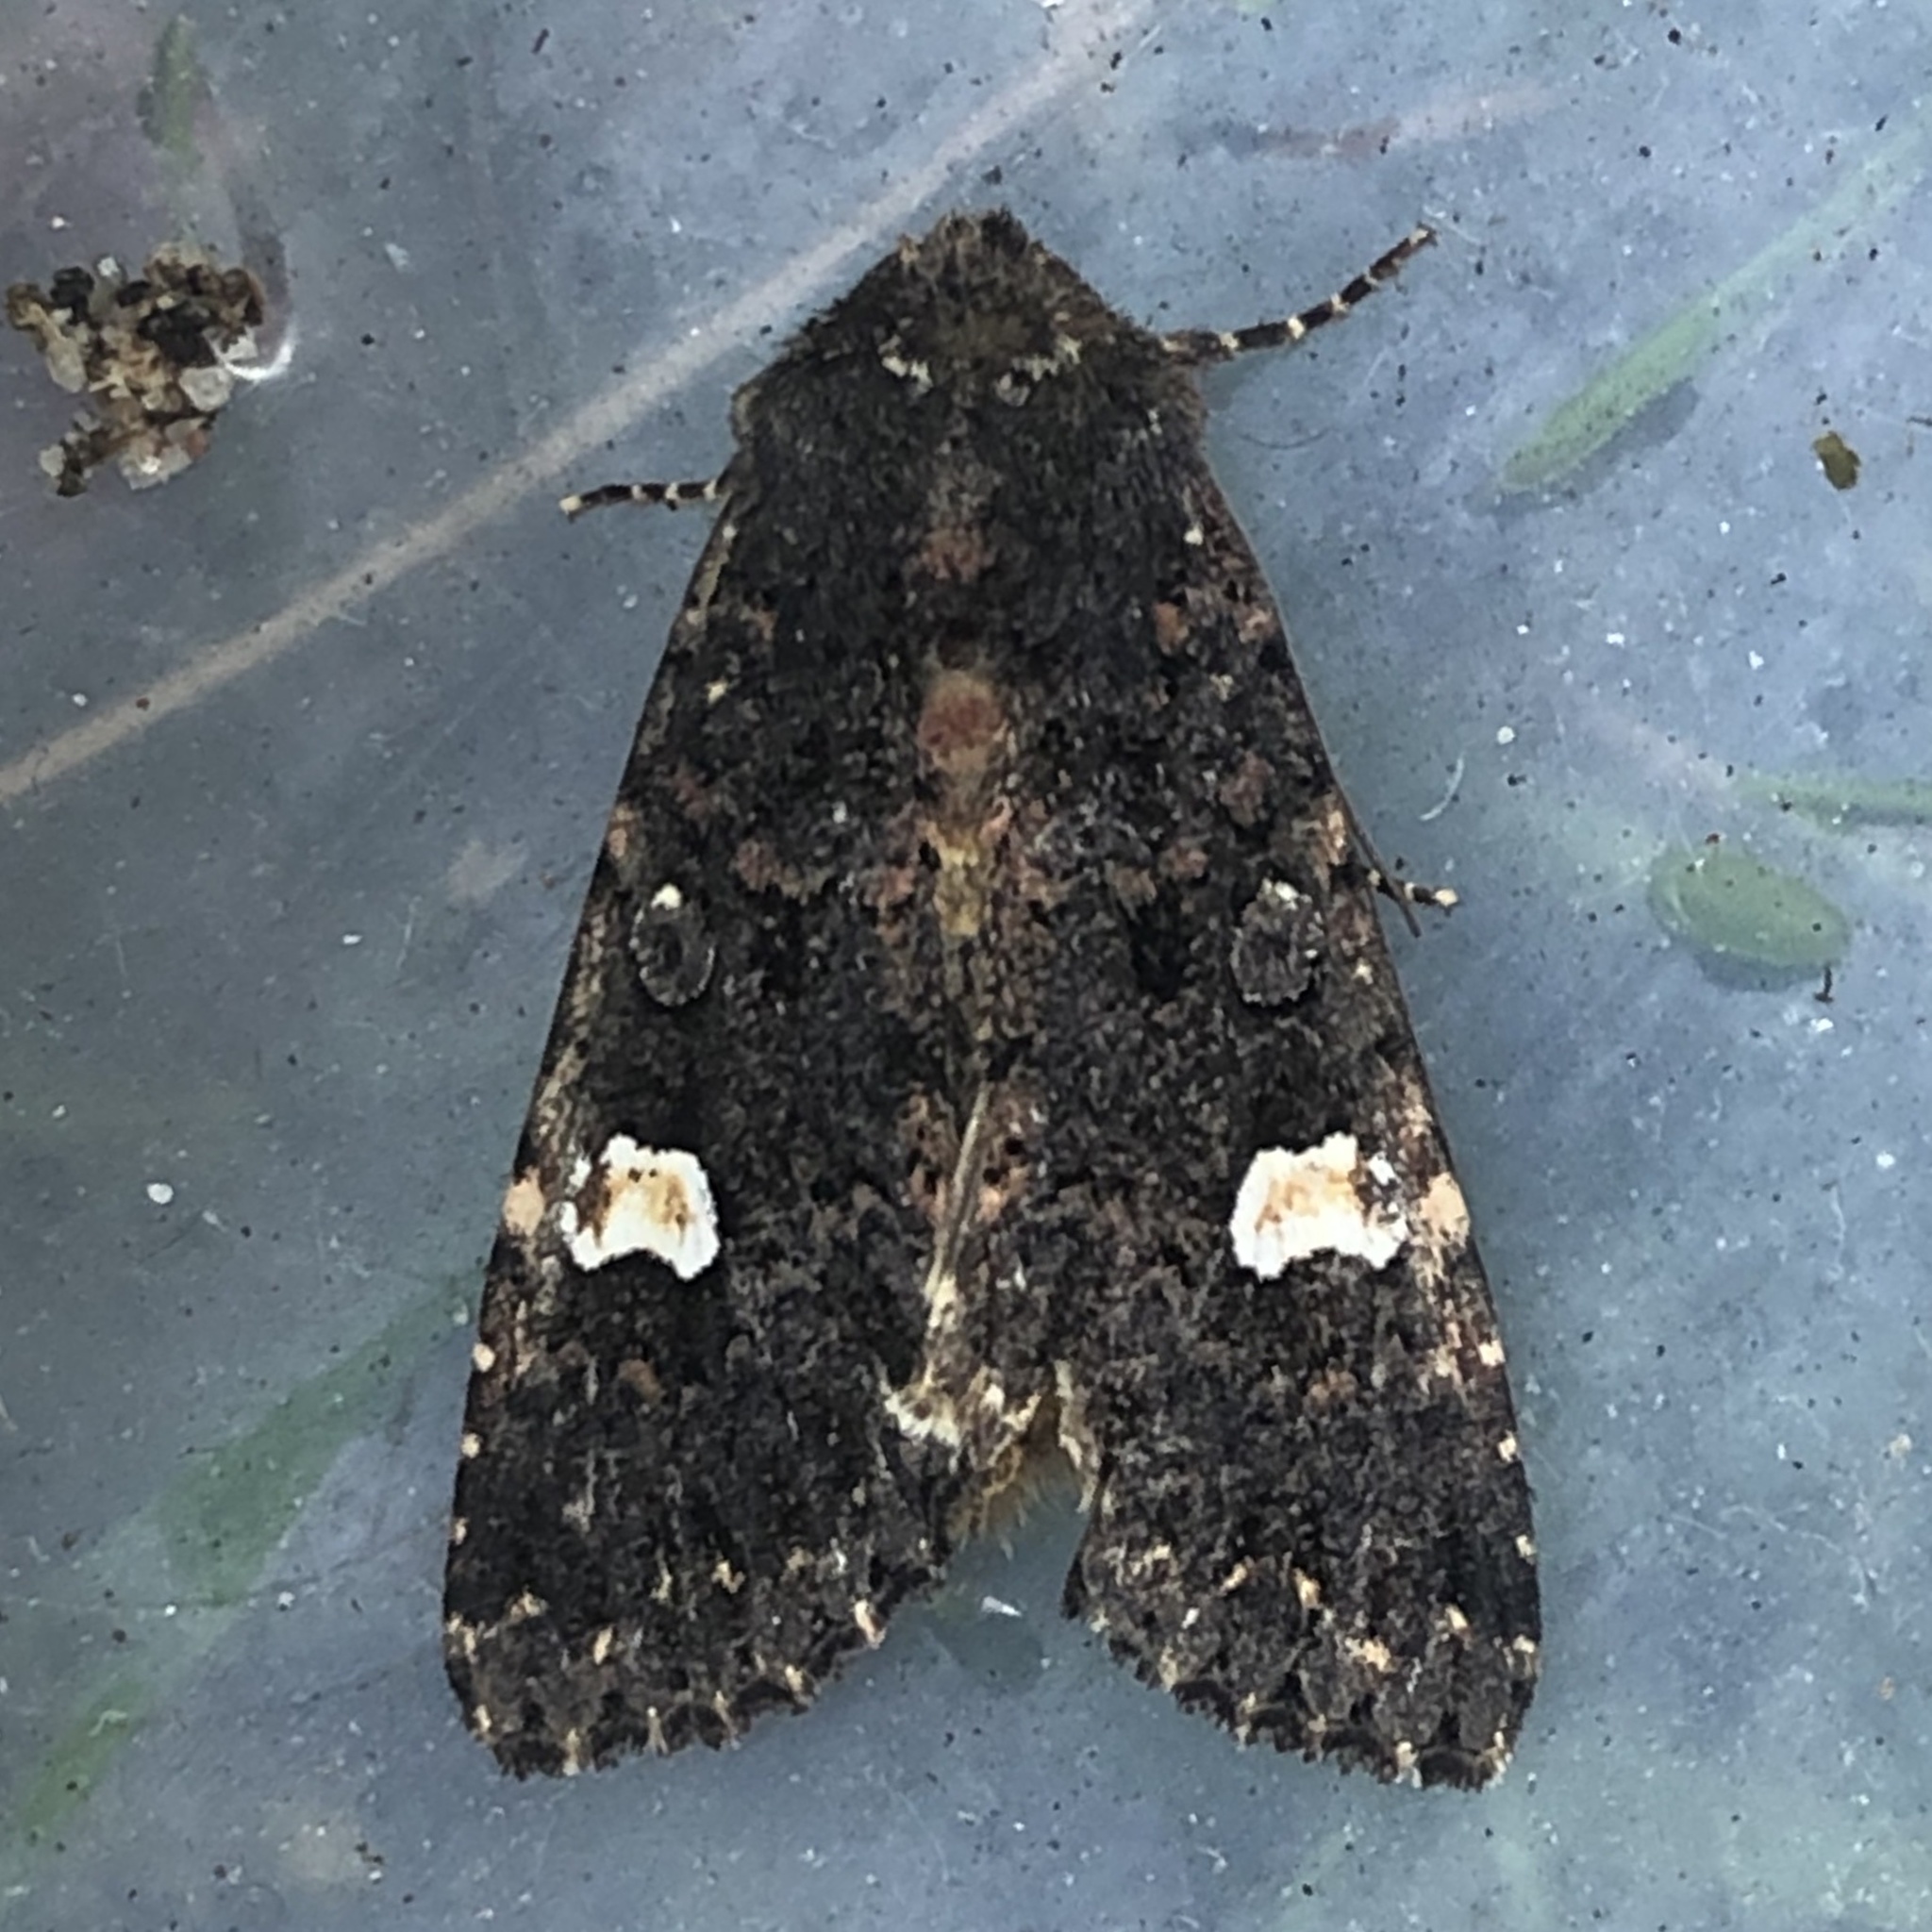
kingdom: Animalia
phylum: Arthropoda
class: Insecta
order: Lepidoptera
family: Noctuidae
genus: Melanchra
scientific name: Melanchra persicariae
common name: Dot moth
